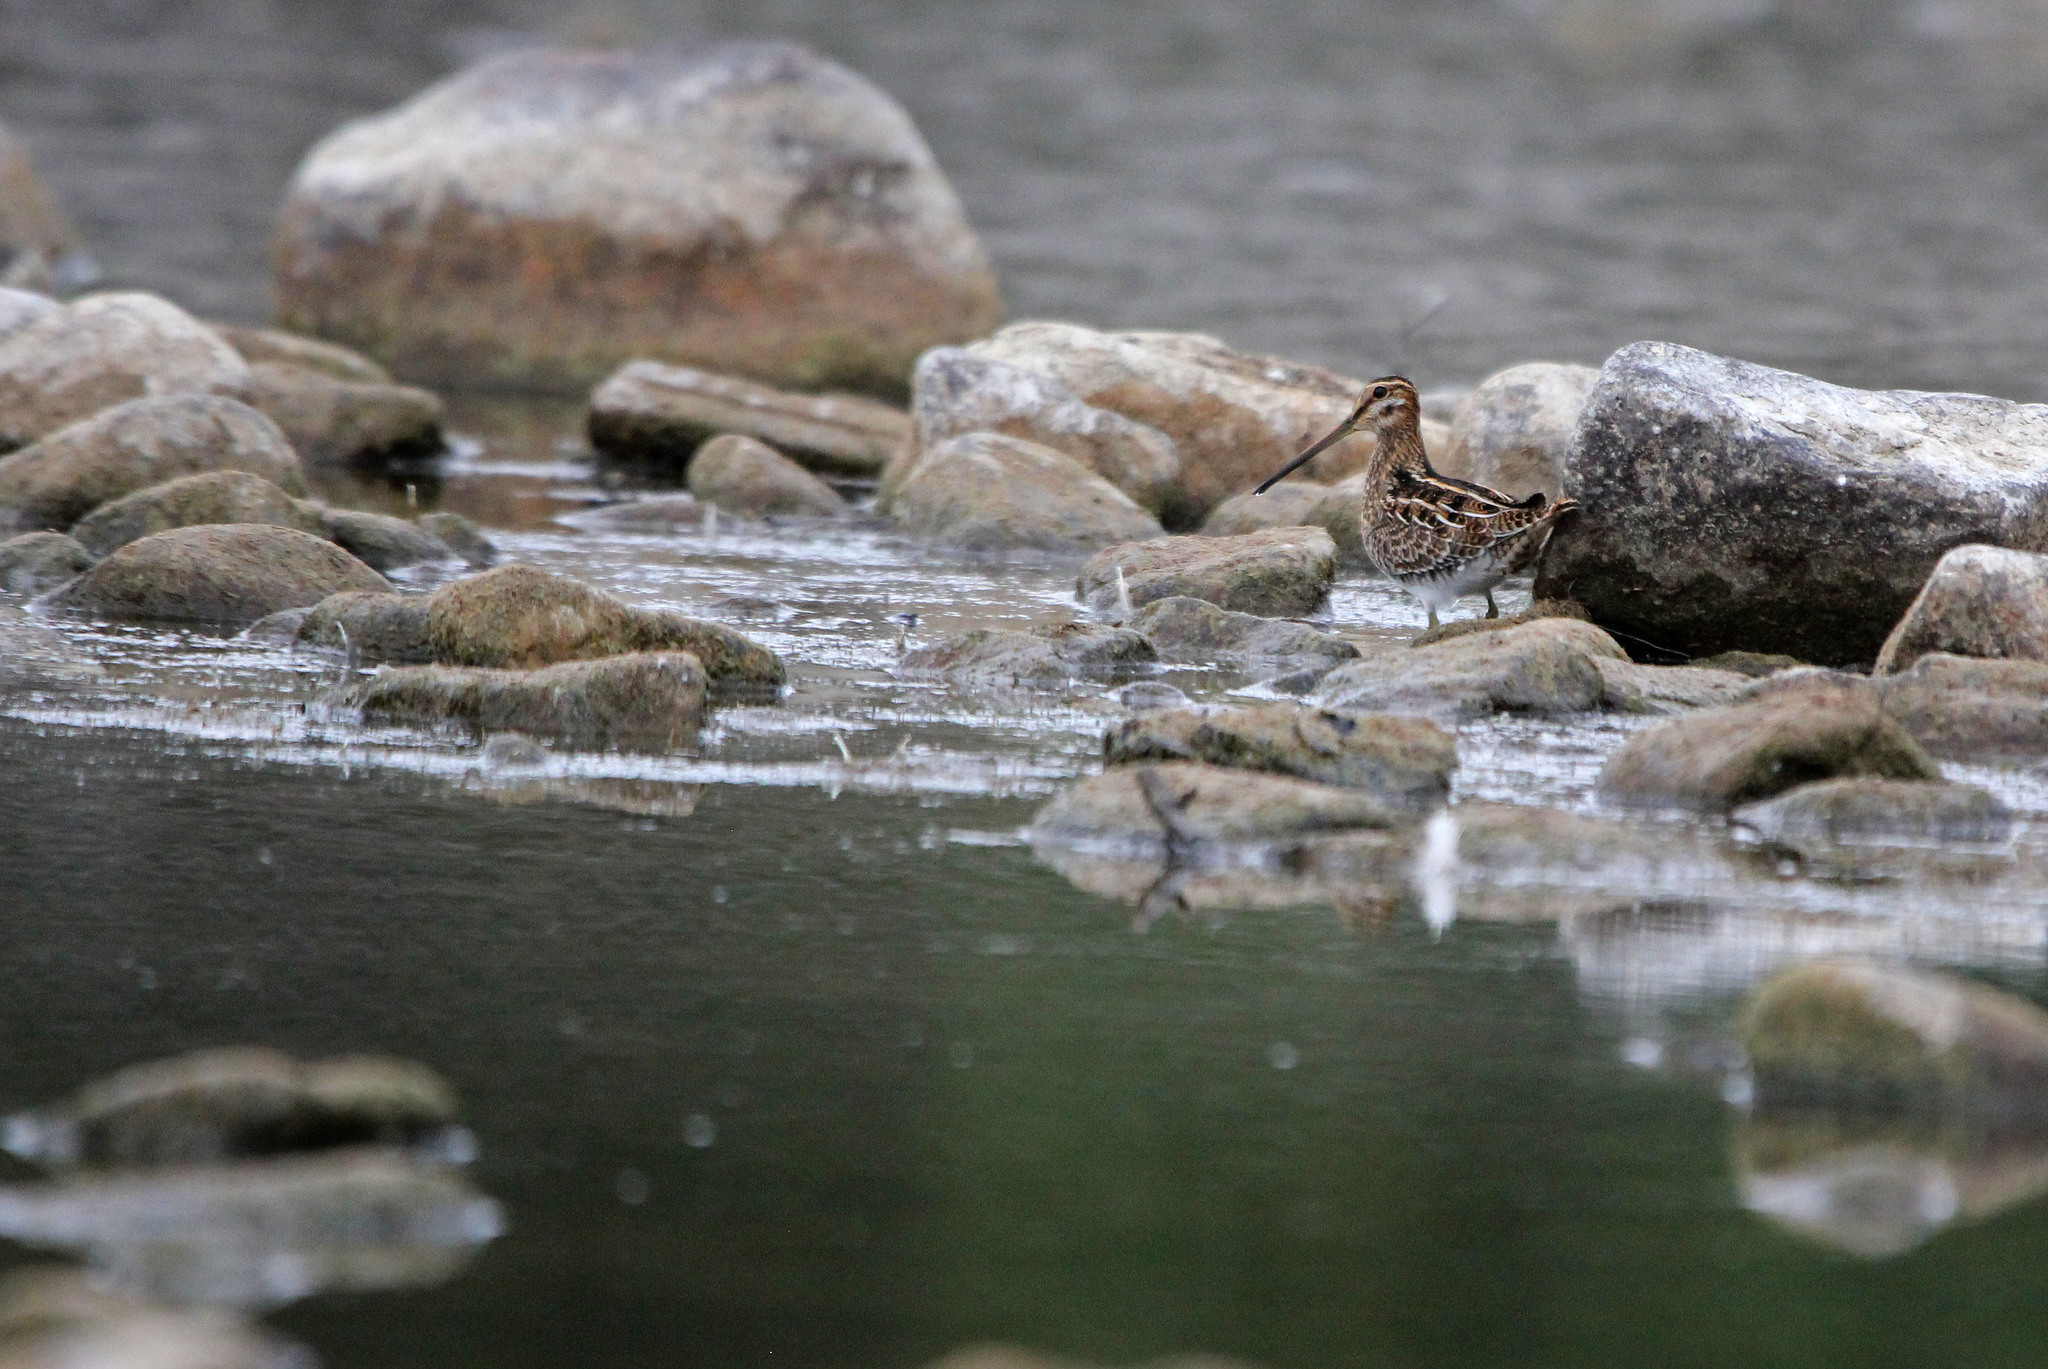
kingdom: Animalia
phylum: Chordata
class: Aves
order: Charadriiformes
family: Scolopacidae
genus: Gallinago
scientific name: Gallinago delicata
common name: Wilson's snipe
